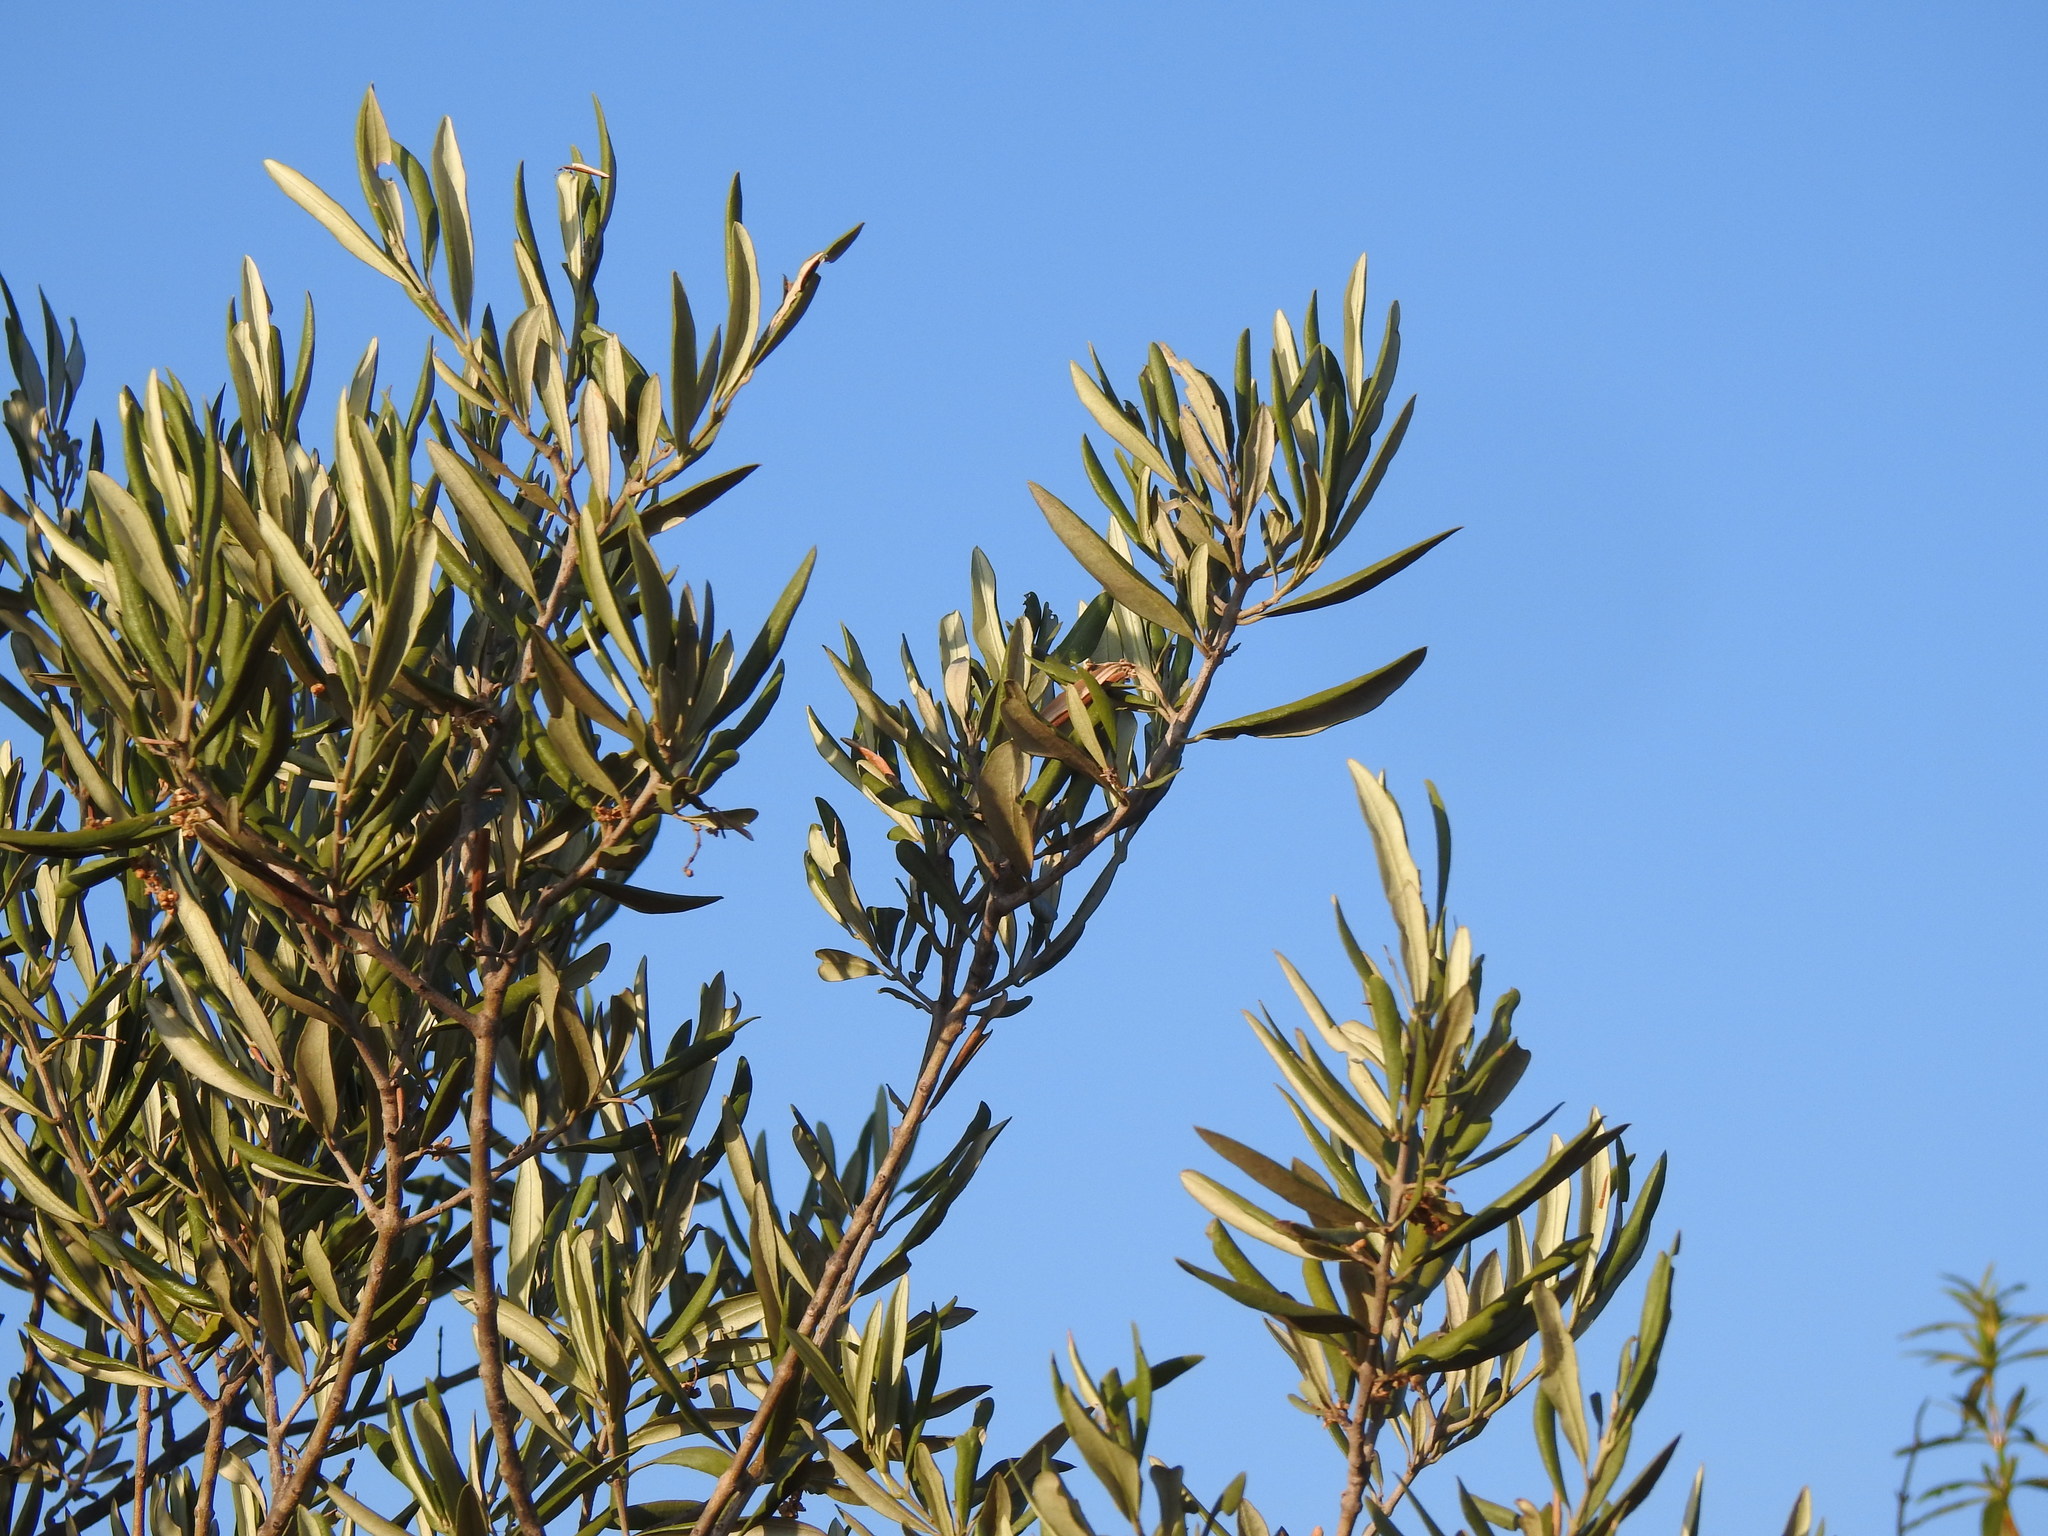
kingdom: Plantae
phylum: Tracheophyta
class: Magnoliopsida
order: Lamiales
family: Oleaceae
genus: Olea
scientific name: Olea europaea
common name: Olive
